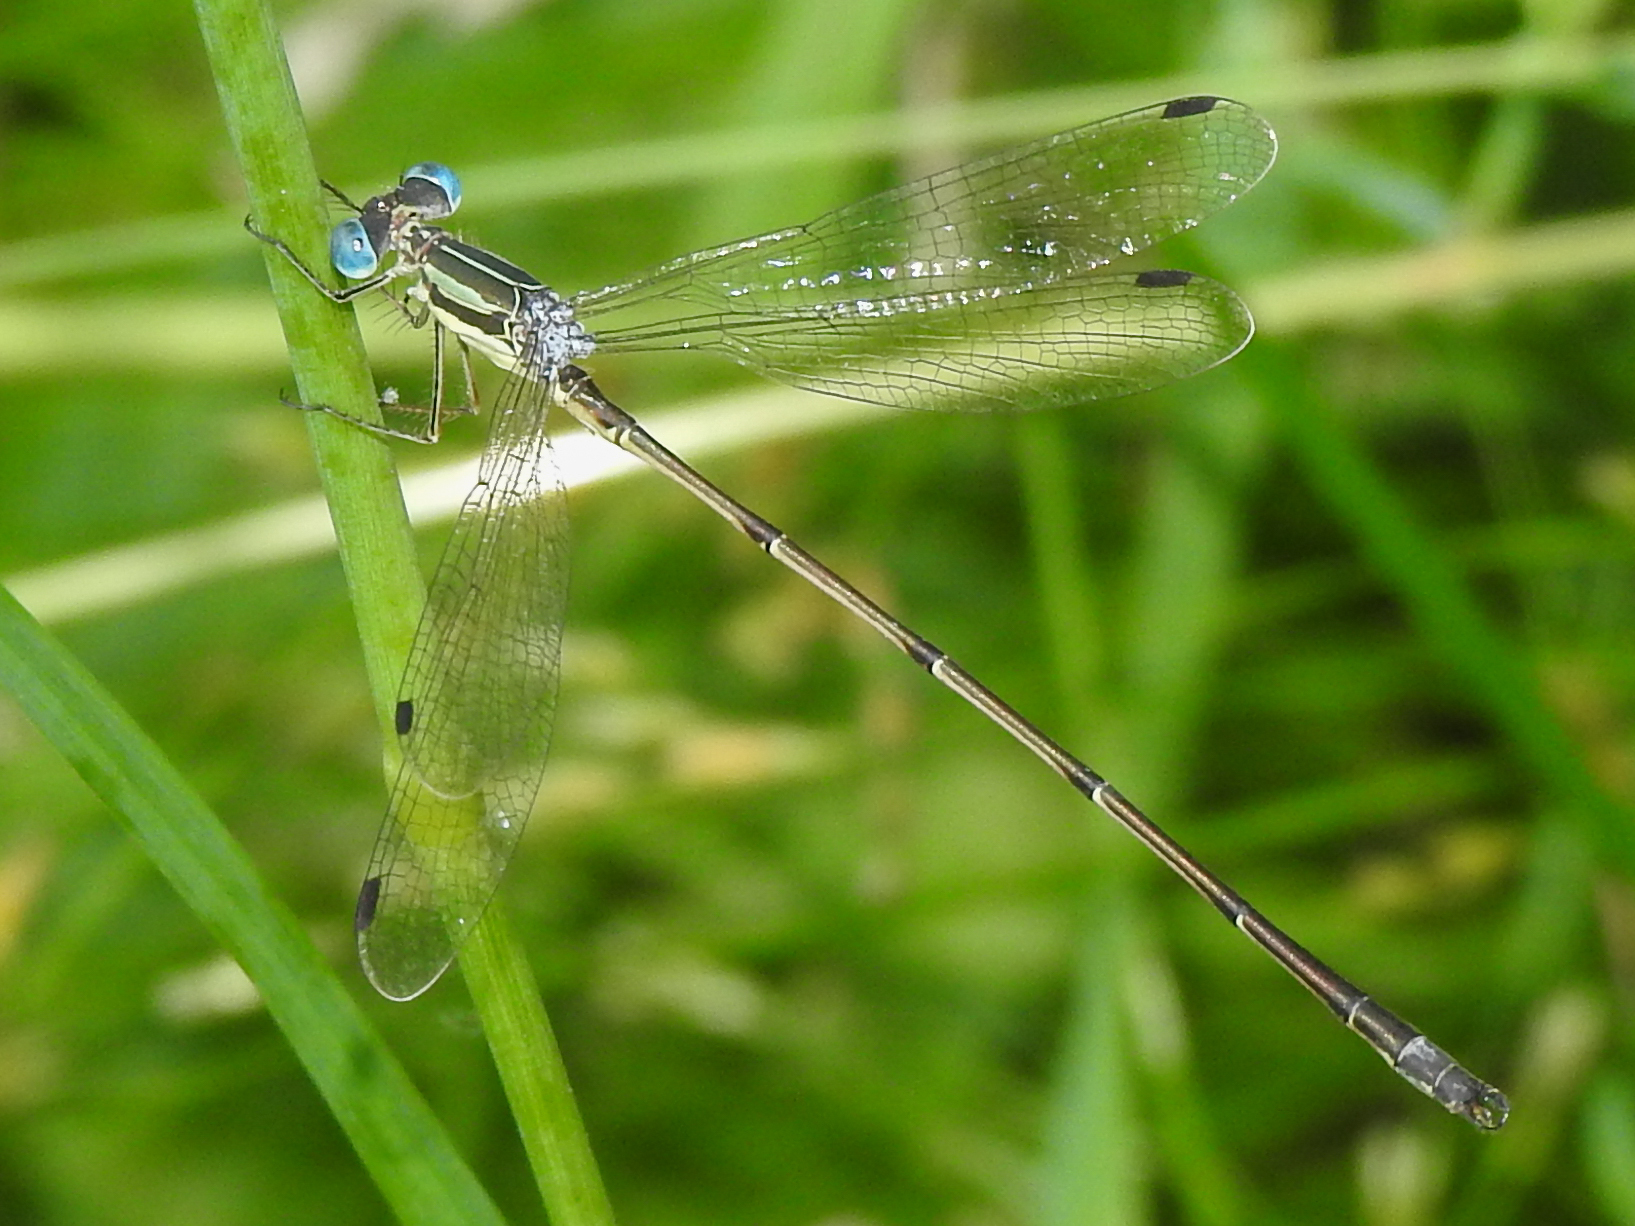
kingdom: Animalia
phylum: Arthropoda
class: Insecta
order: Odonata
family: Lestidae
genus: Lestes
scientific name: Lestes rectangularis
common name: Slender spreadwing
